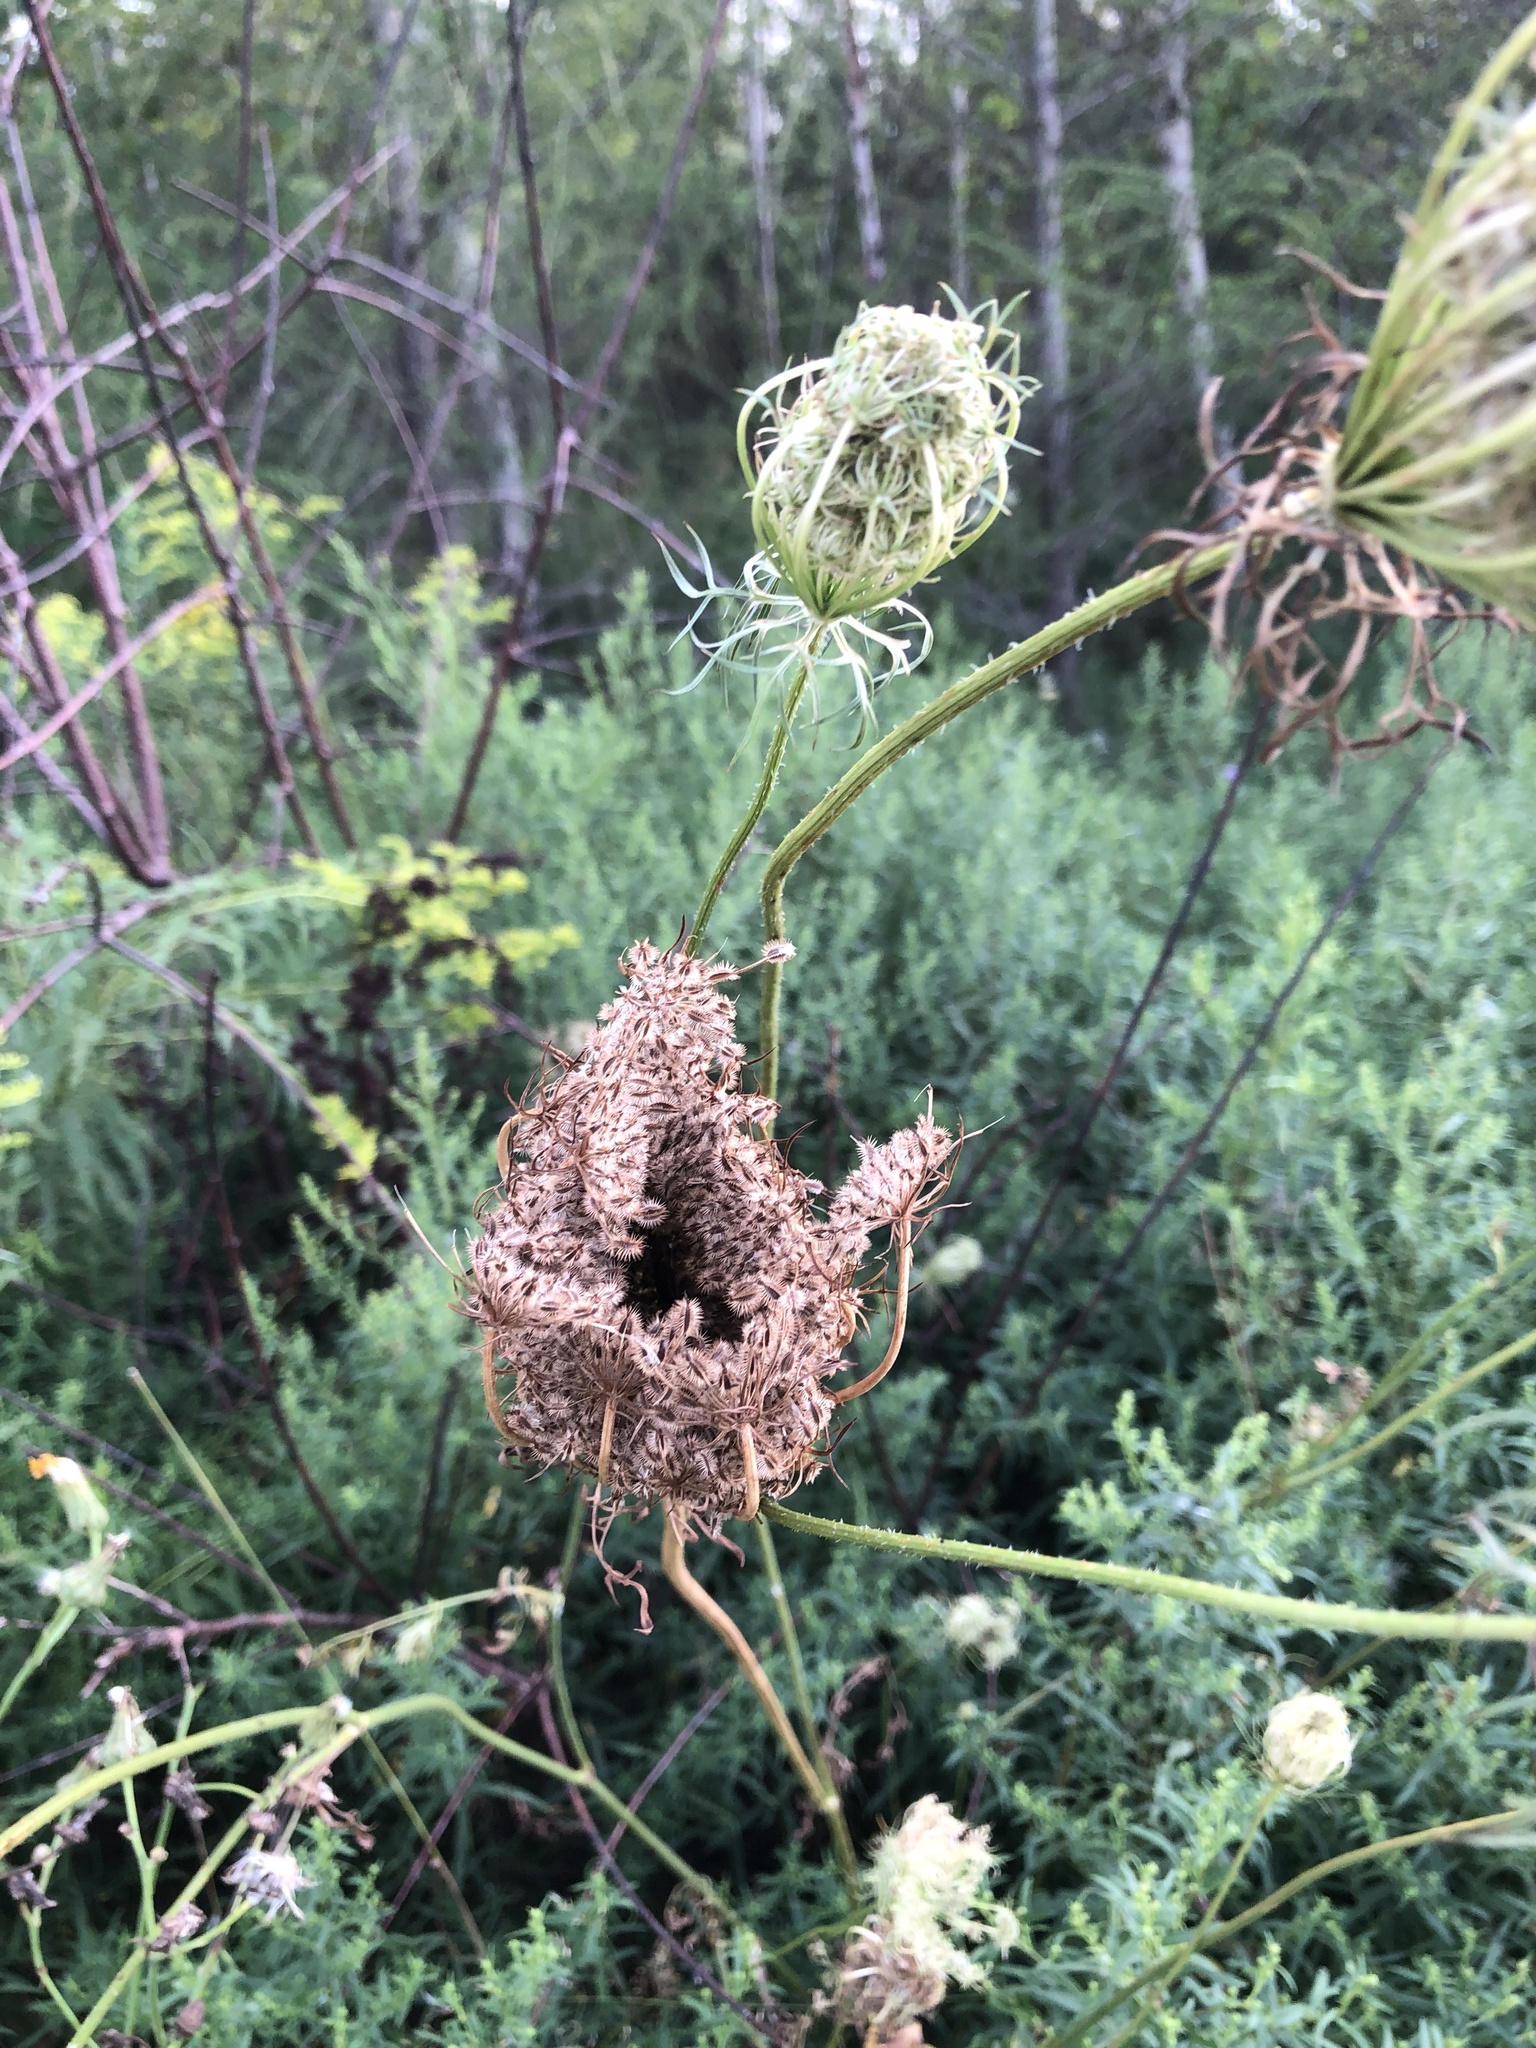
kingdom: Plantae
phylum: Tracheophyta
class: Magnoliopsida
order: Apiales
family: Apiaceae
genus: Daucus
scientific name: Daucus carota
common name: Wild carrot
